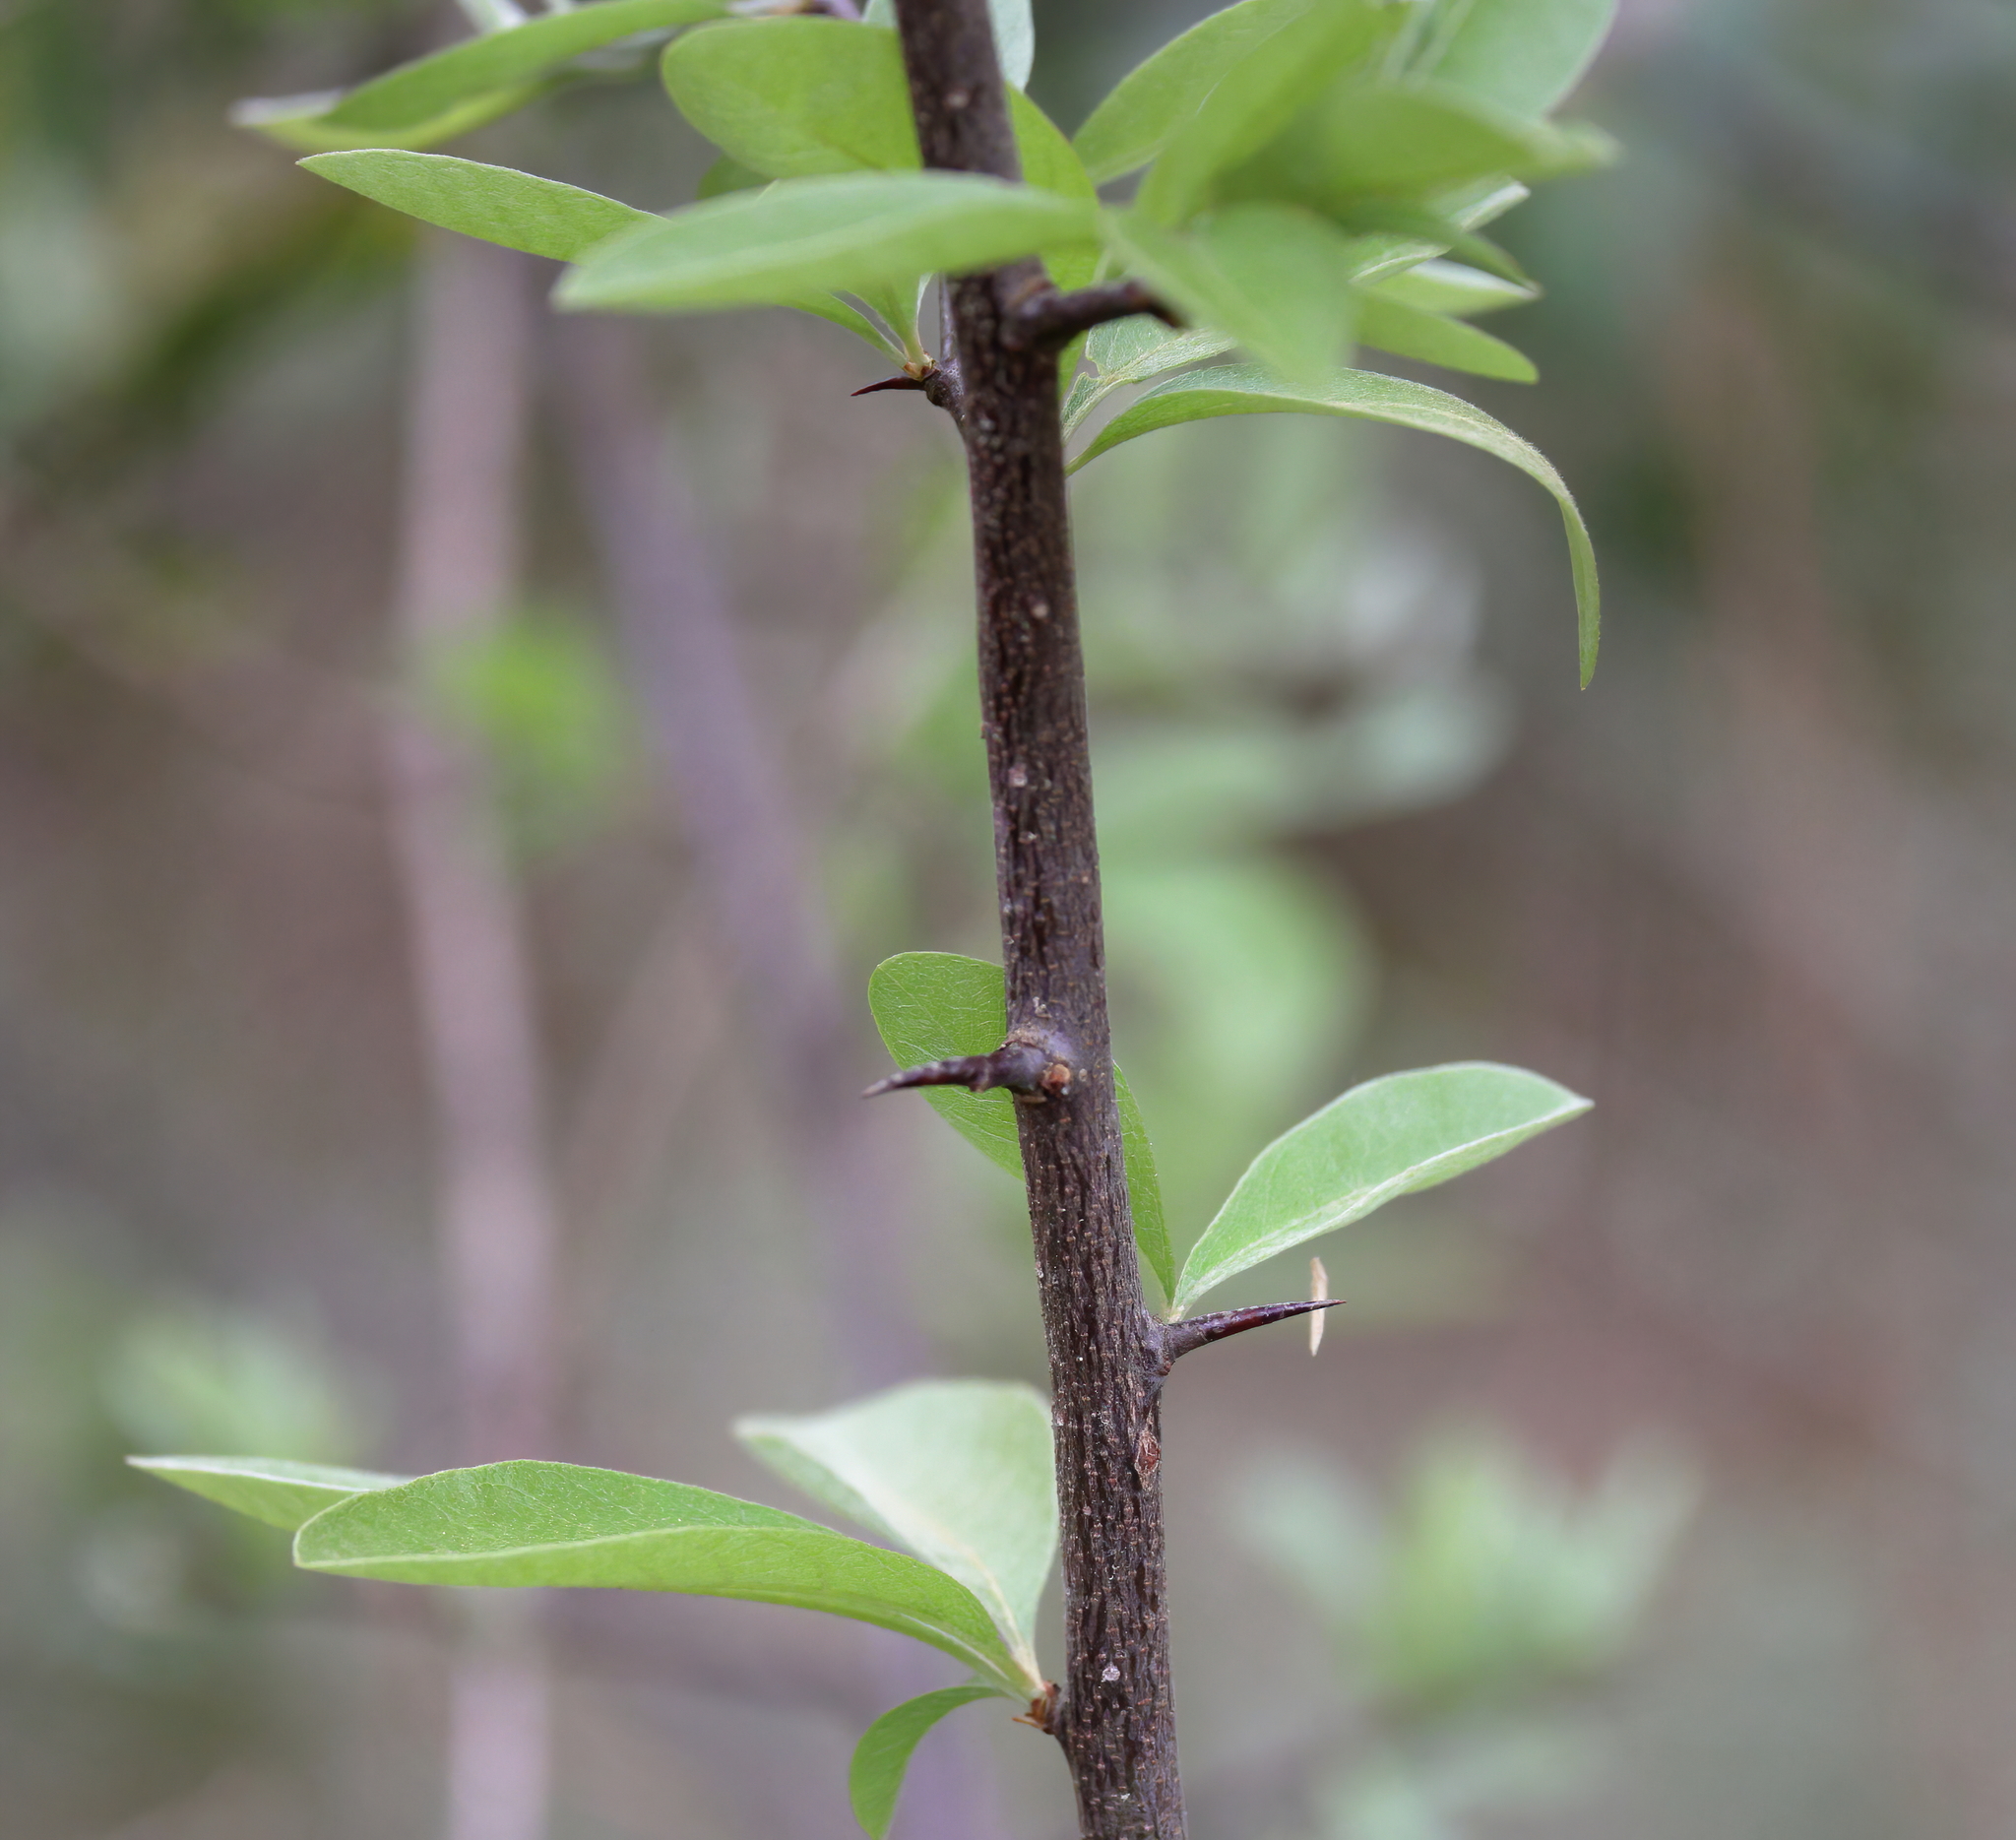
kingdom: Plantae
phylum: Tracheophyta
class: Magnoliopsida
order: Ericales
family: Sapotaceae
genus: Sideroxylon
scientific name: Sideroxylon lanuginosum
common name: Chittamwood
